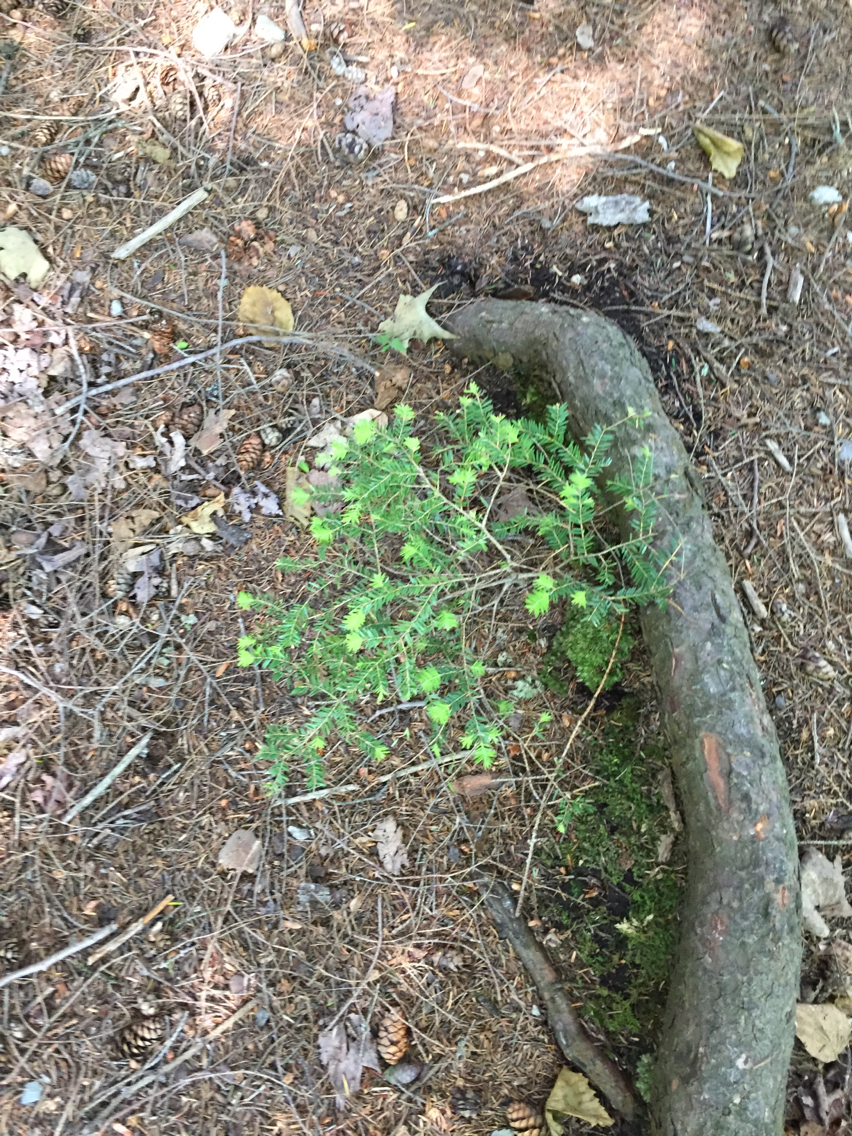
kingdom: Plantae
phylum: Tracheophyta
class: Pinopsida
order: Pinales
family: Pinaceae
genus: Tsuga
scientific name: Tsuga canadensis
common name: Eastern hemlock
